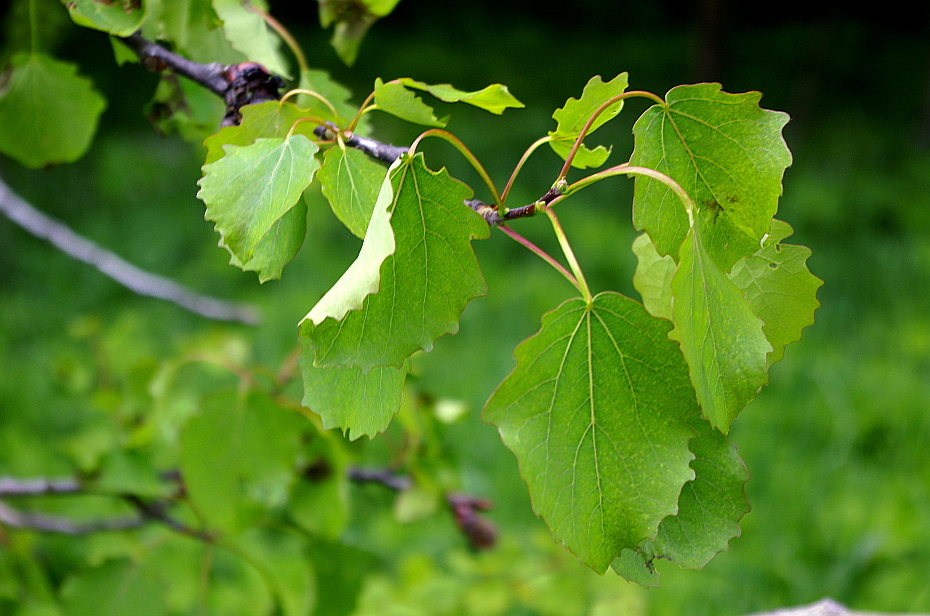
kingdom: Plantae
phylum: Tracheophyta
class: Magnoliopsida
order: Malpighiales
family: Salicaceae
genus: Populus
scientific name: Populus tremula
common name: European aspen
